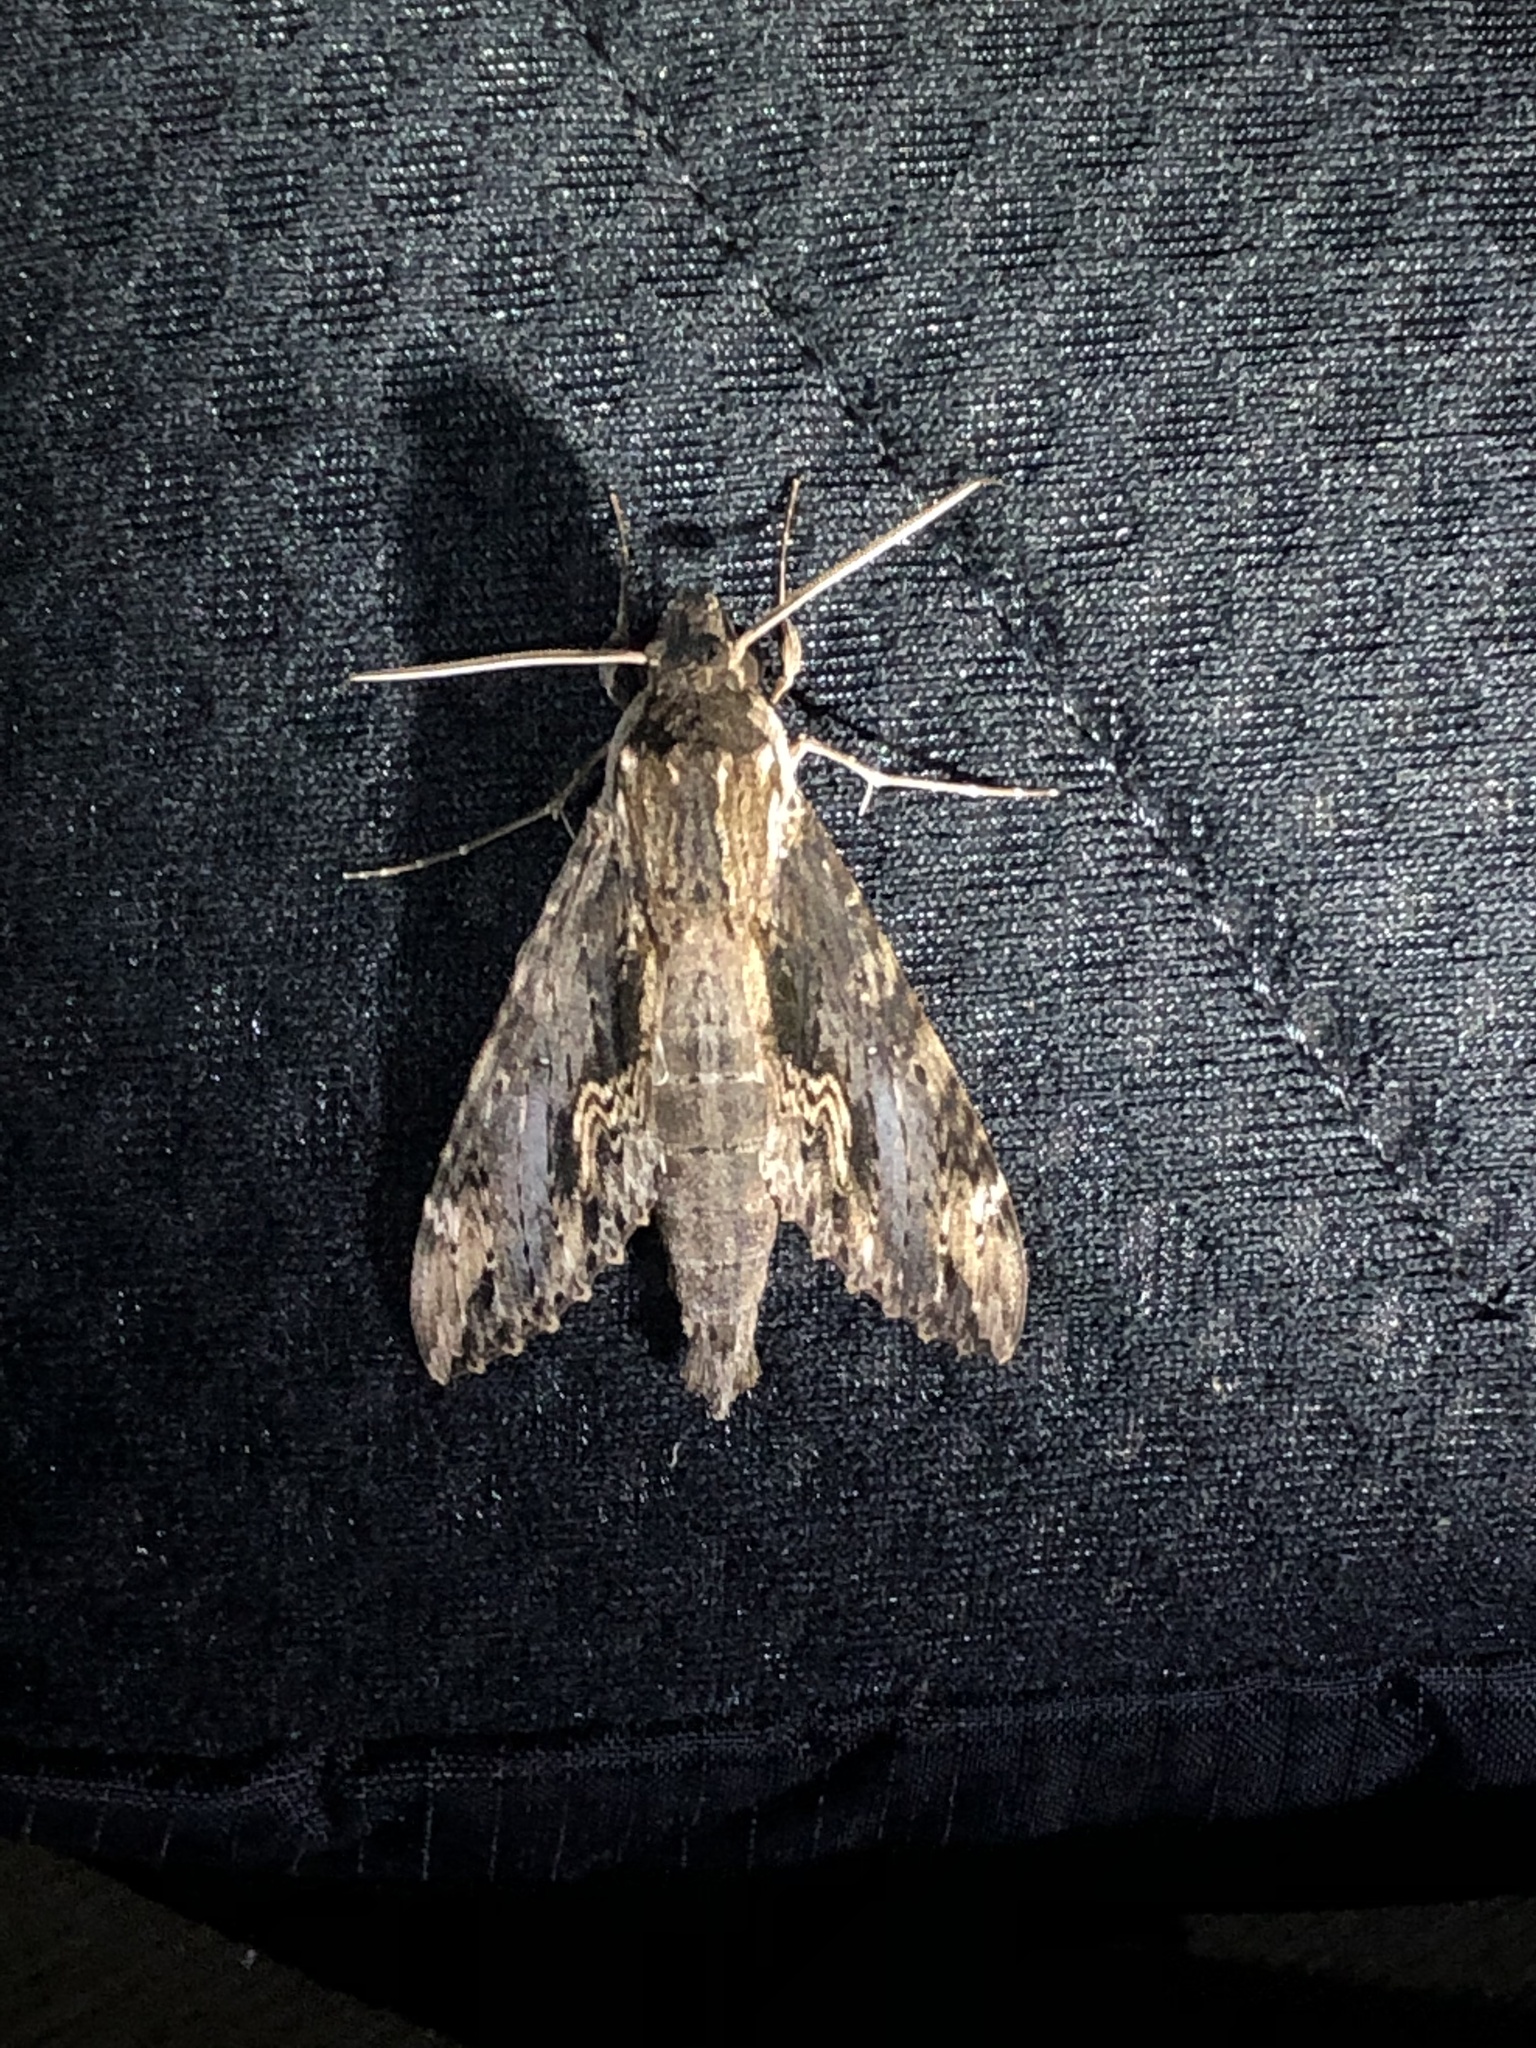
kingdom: Animalia
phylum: Arthropoda
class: Insecta
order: Lepidoptera
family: Sphingidae
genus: Erinnyis
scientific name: Erinnyis oenotrus
